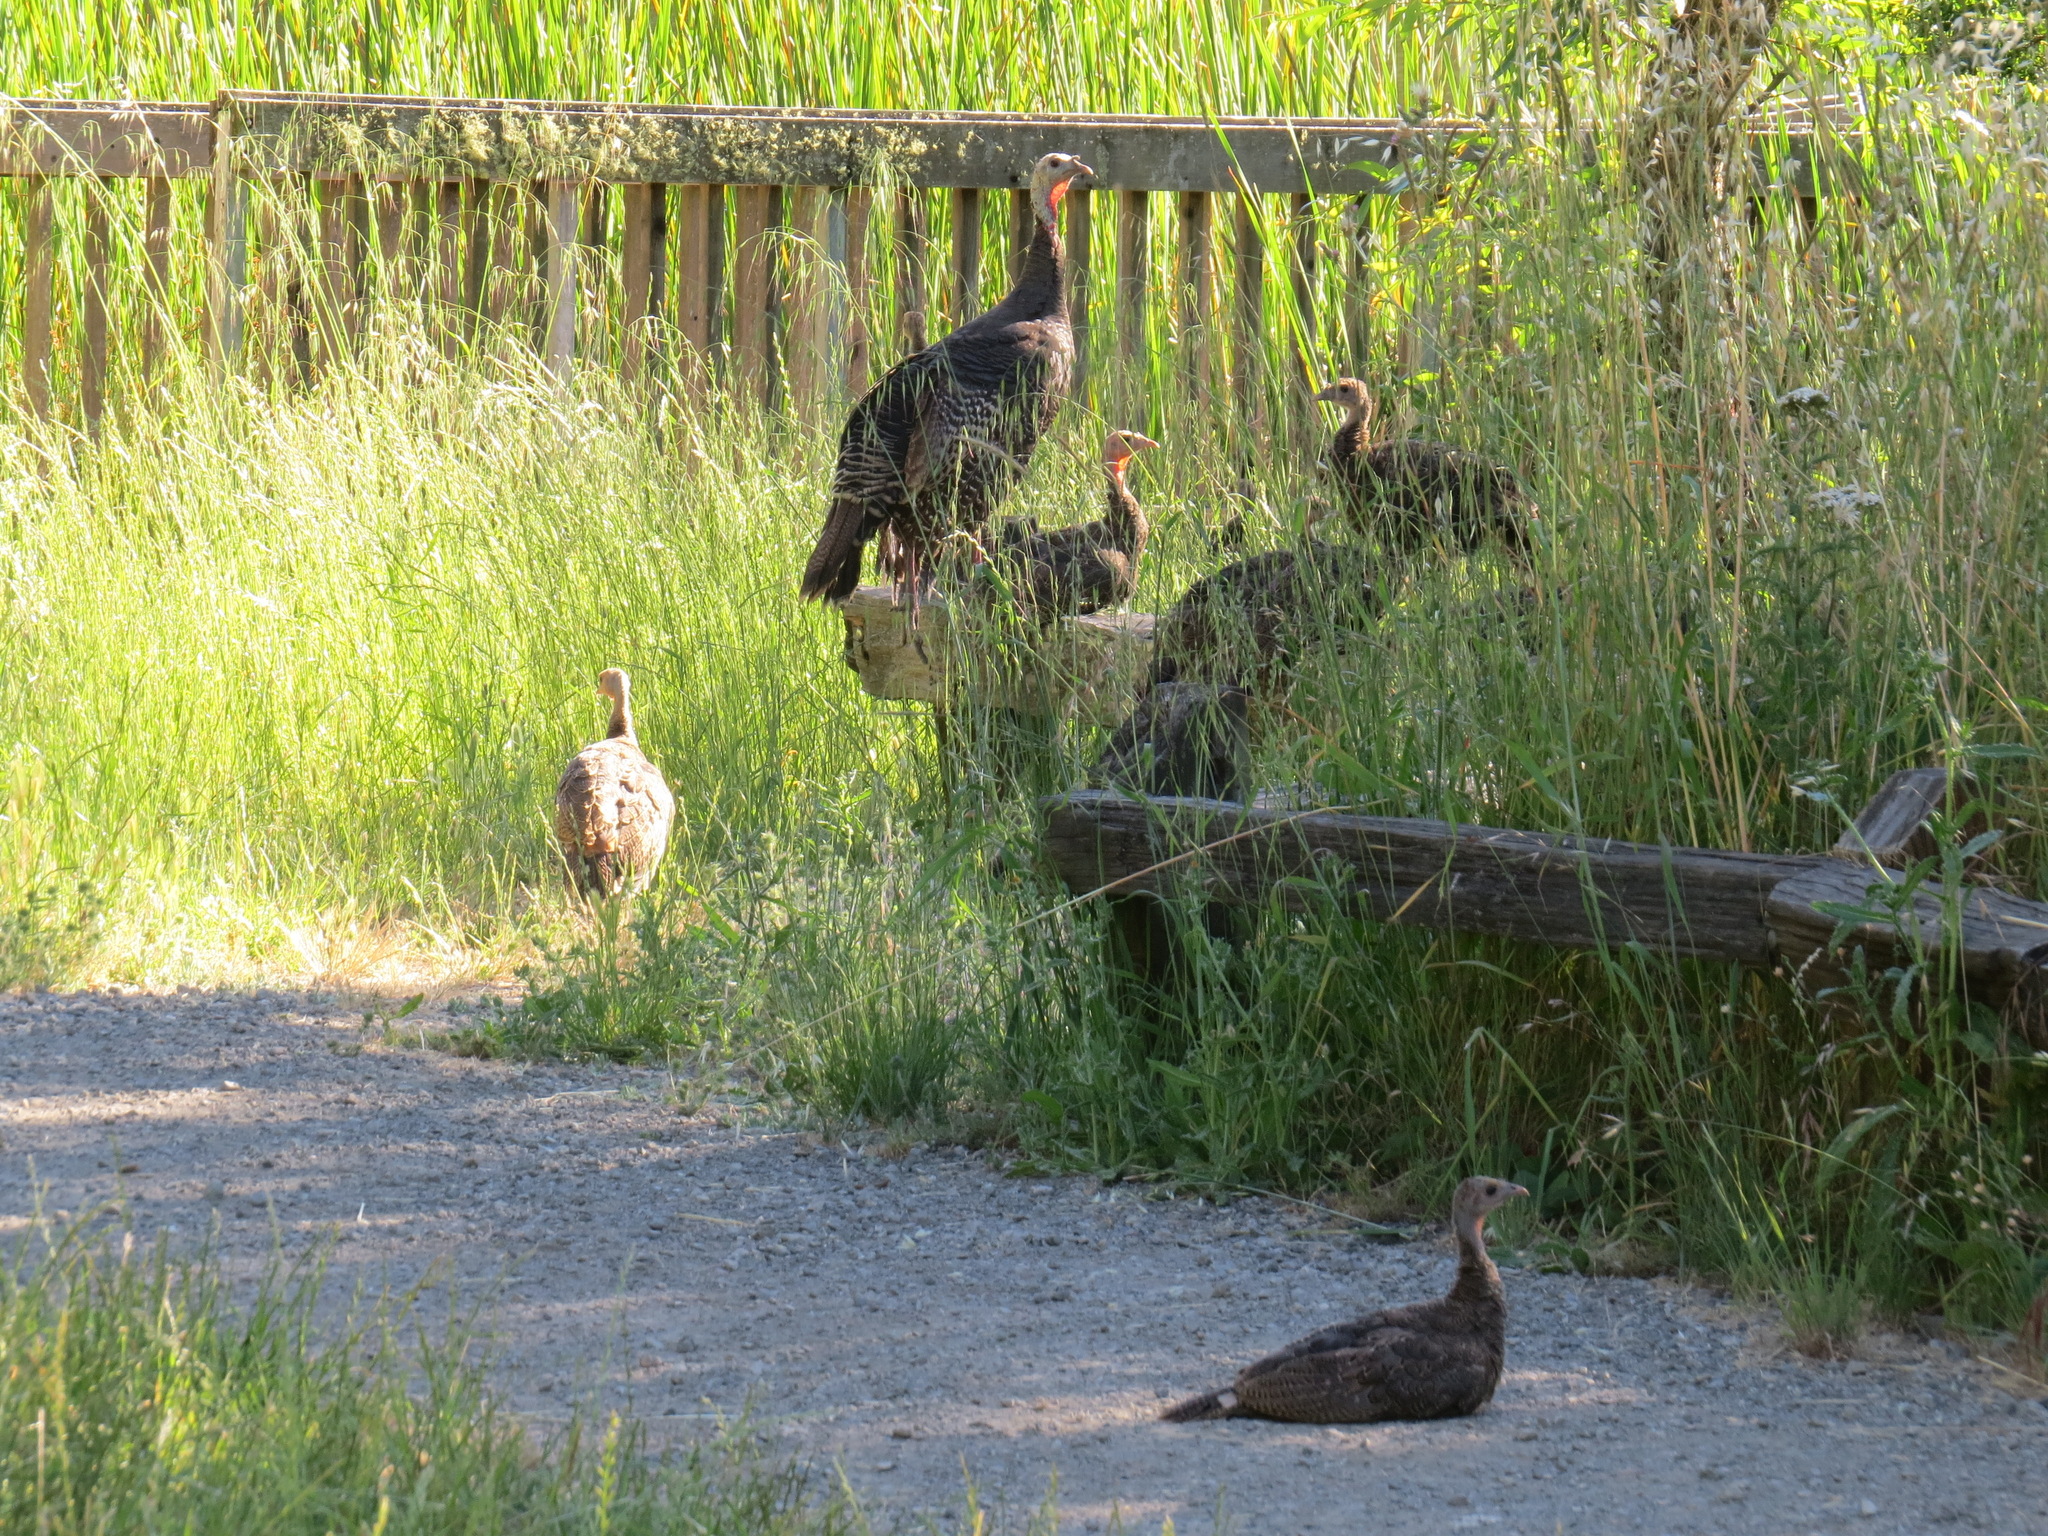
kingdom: Animalia
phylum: Chordata
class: Aves
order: Galliformes
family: Phasianidae
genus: Meleagris
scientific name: Meleagris gallopavo
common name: Wild turkey
